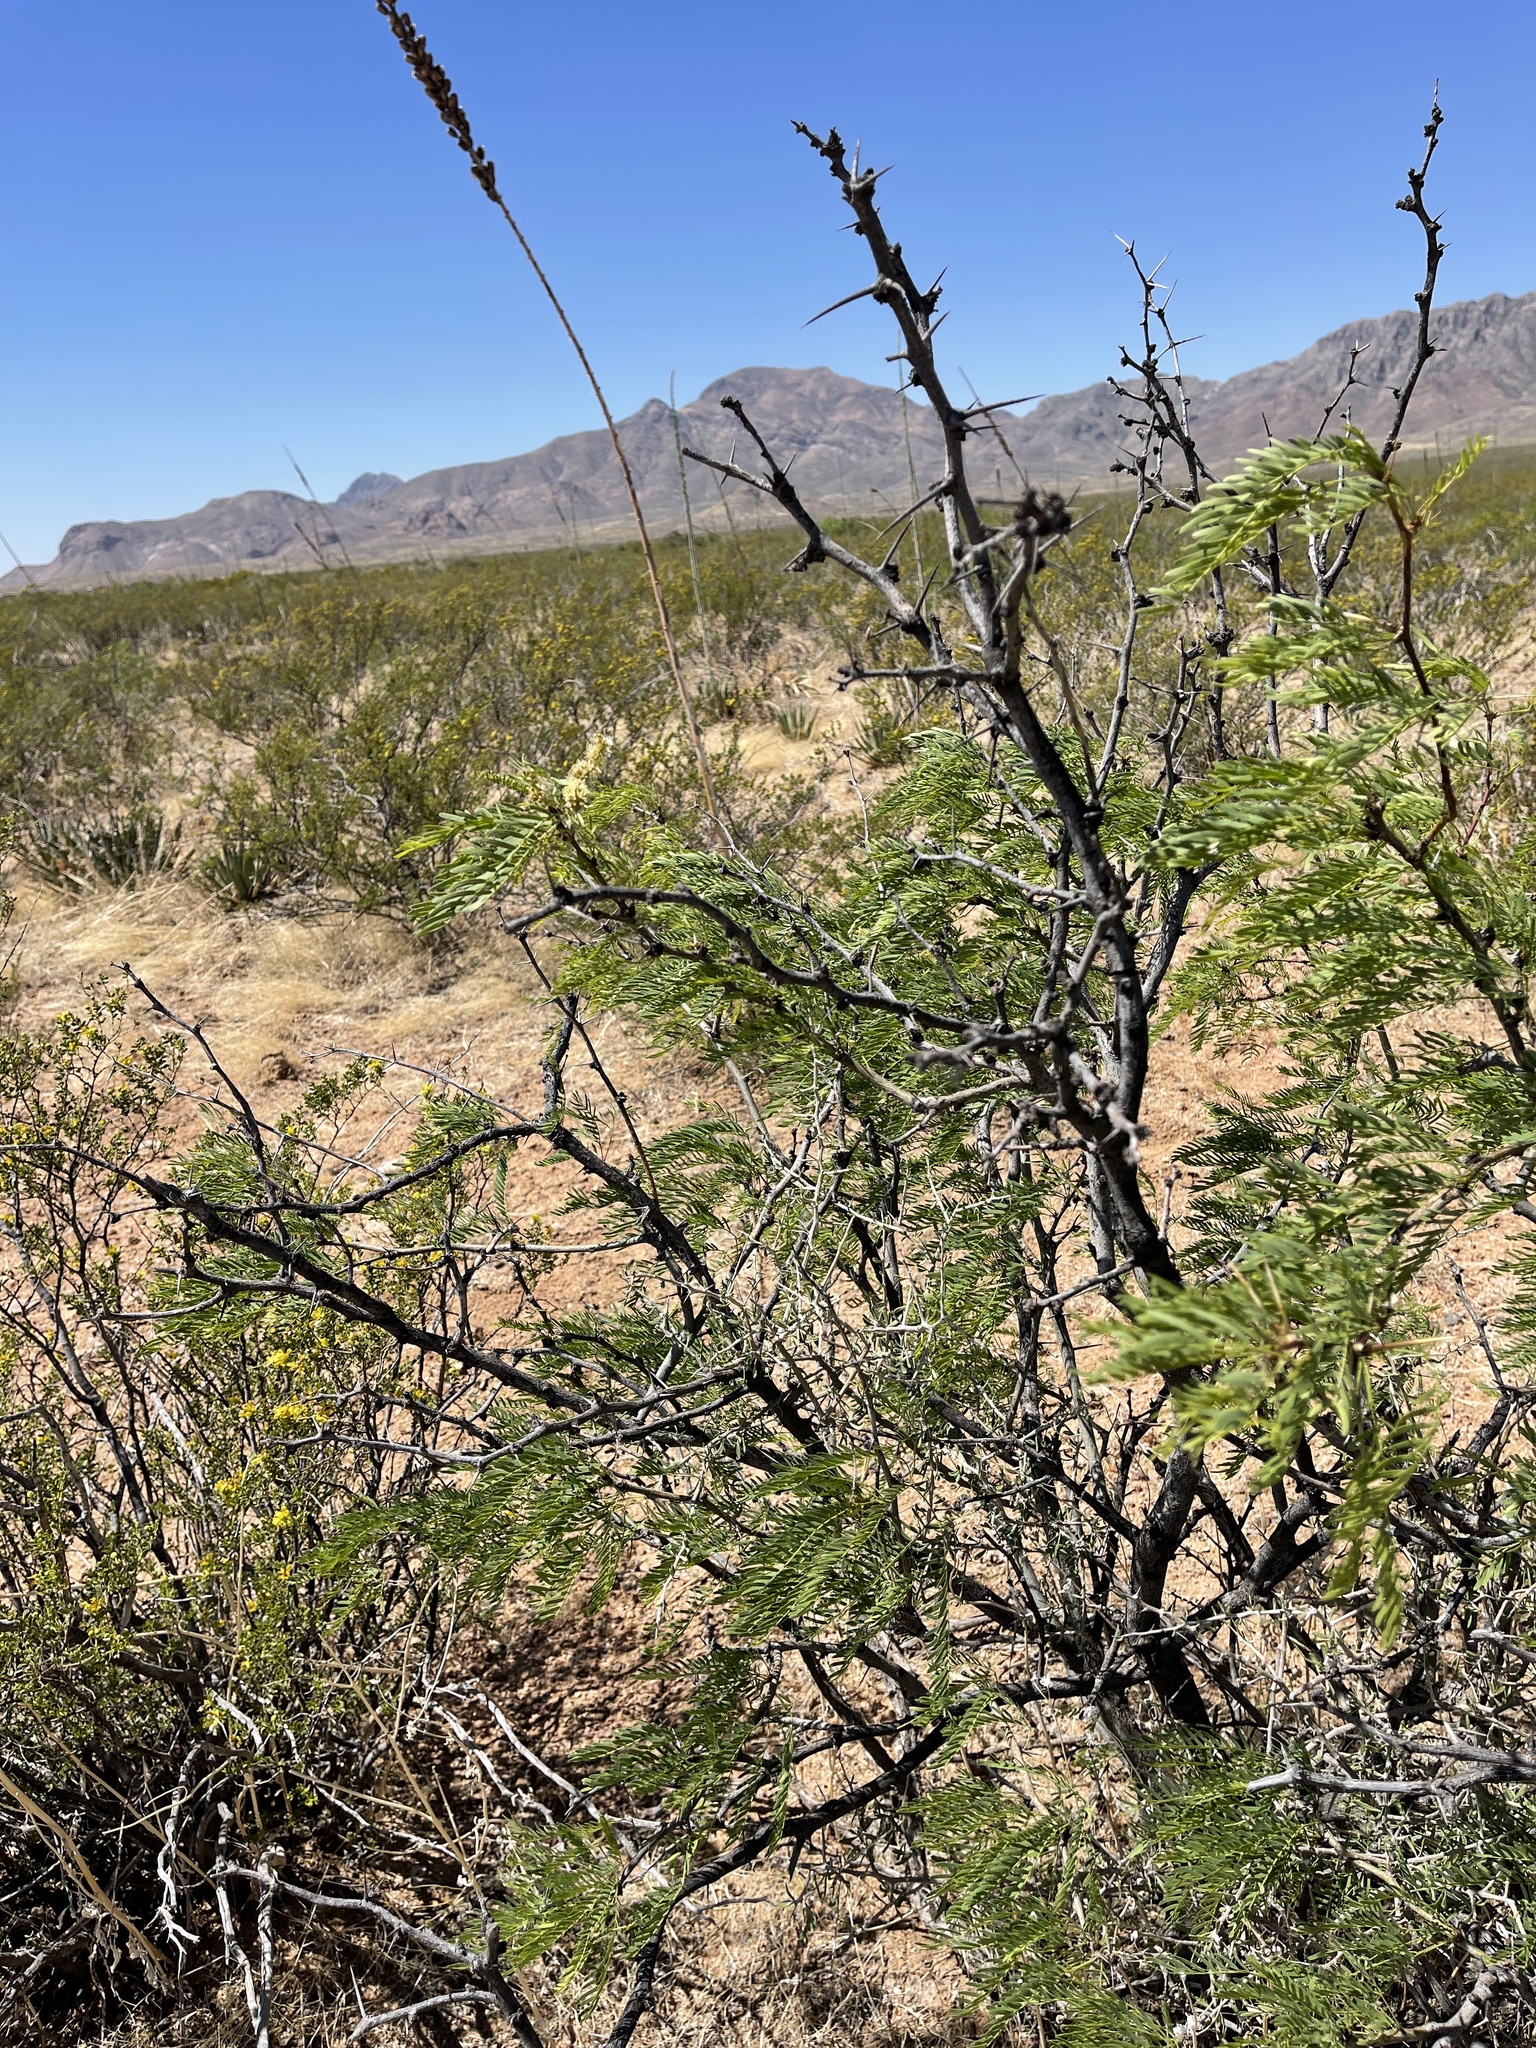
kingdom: Plantae
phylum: Tracheophyta
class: Magnoliopsida
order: Fabales
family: Fabaceae
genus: Prosopis
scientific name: Prosopis glandulosa
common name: Honey mesquite
